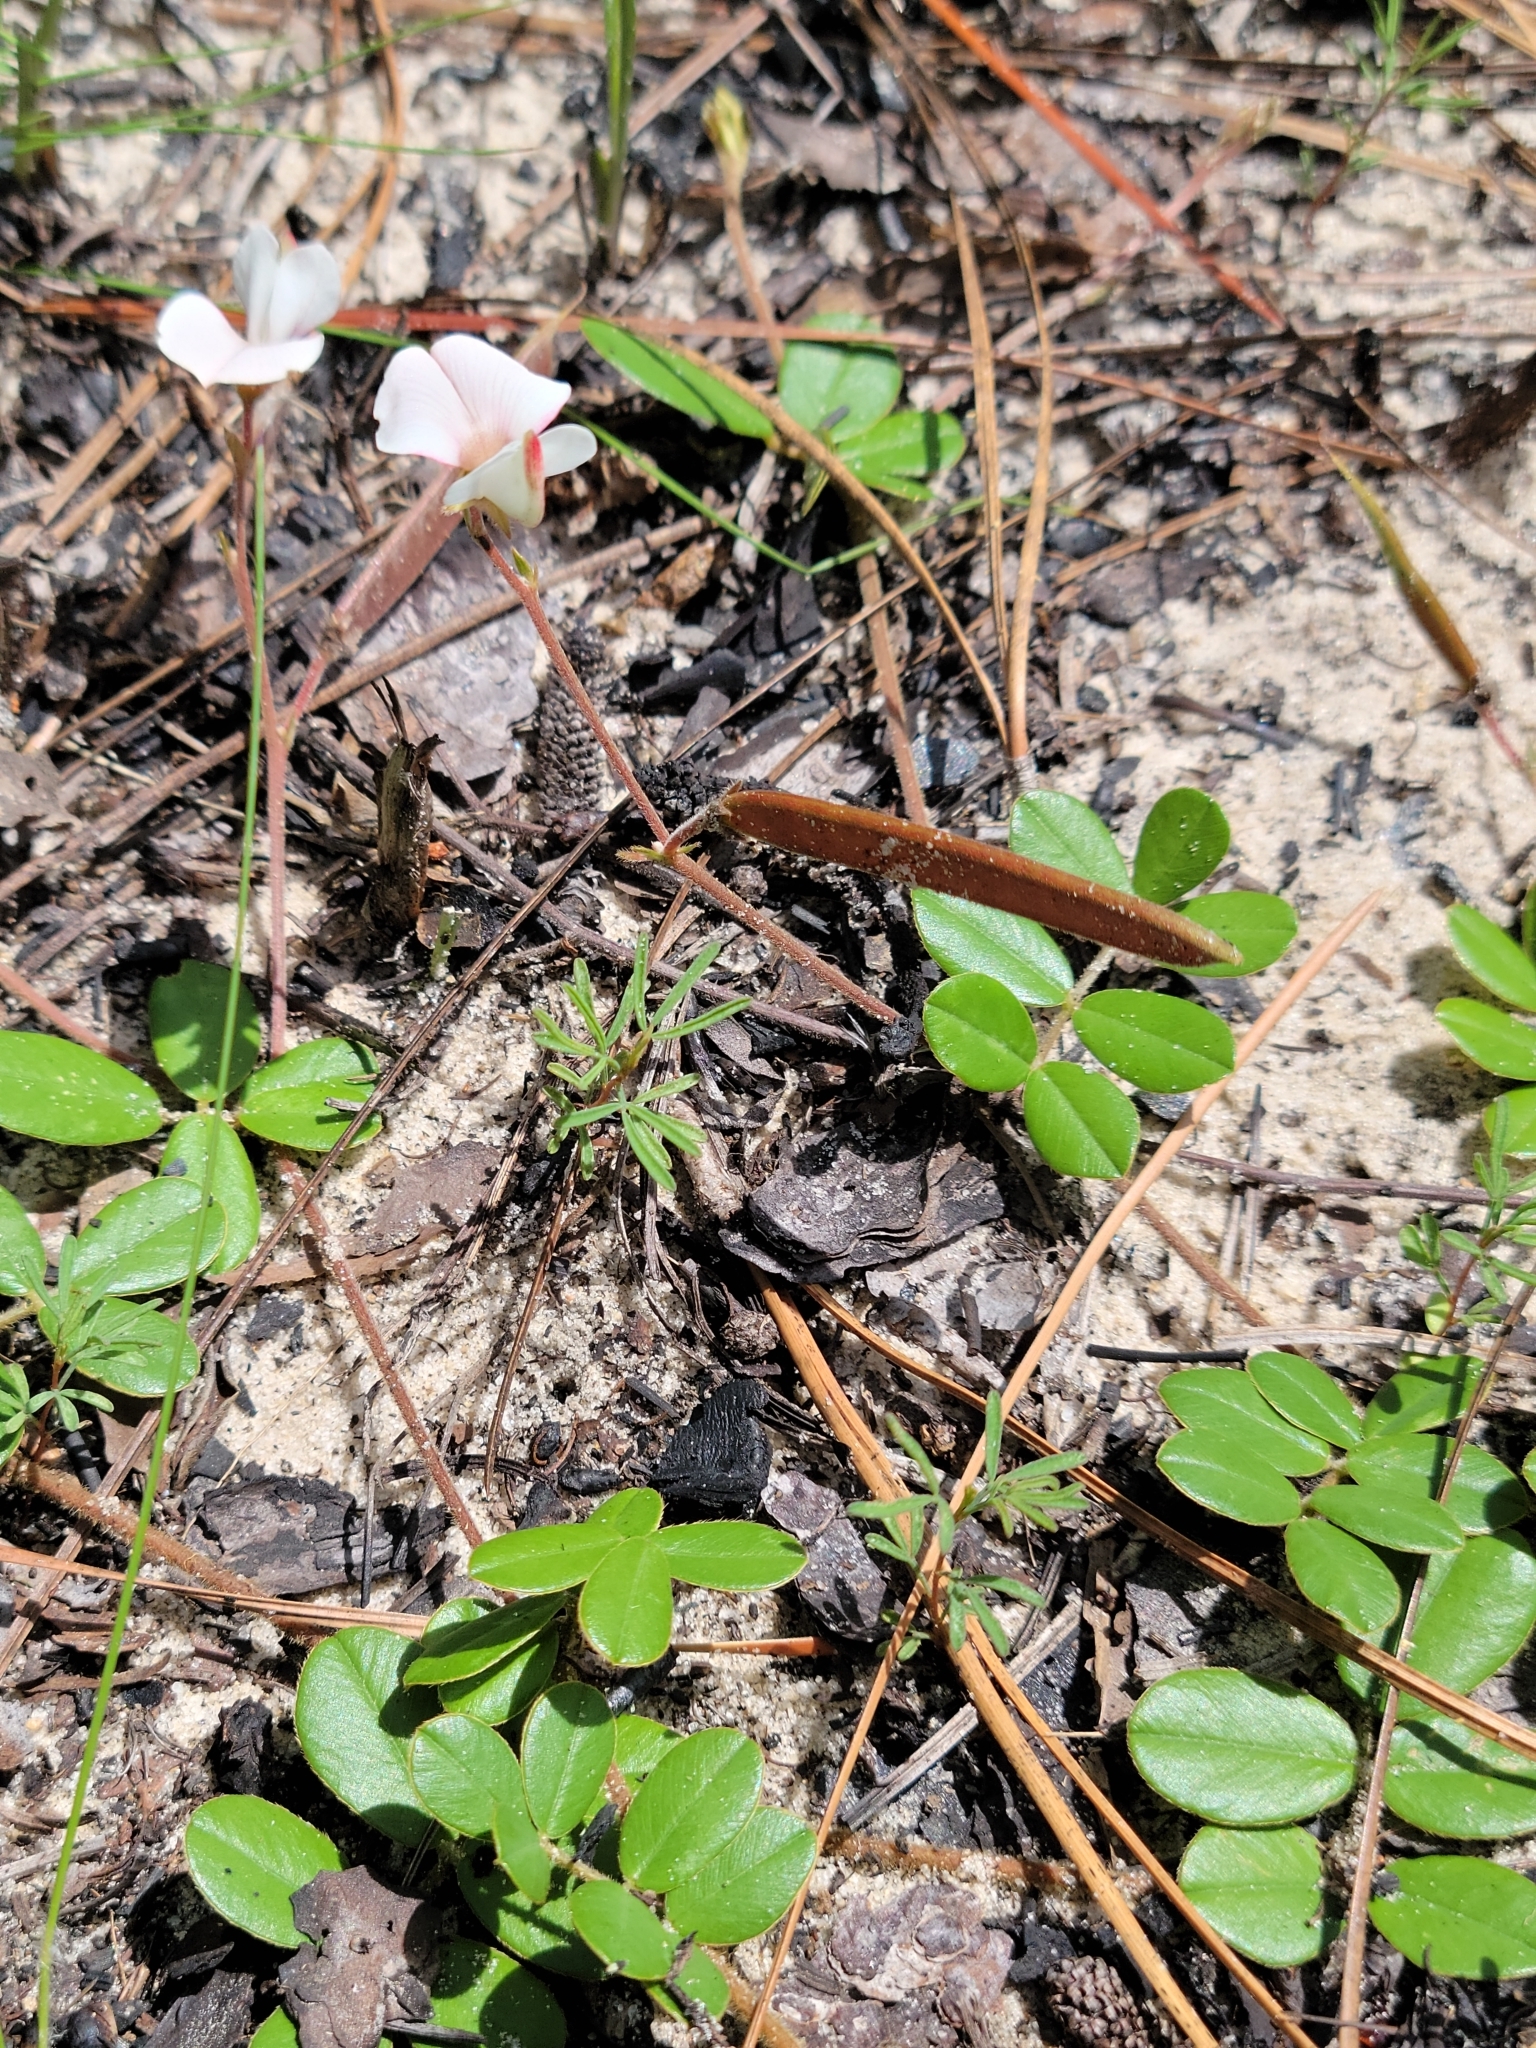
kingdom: Plantae
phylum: Tracheophyta
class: Magnoliopsida
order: Fabales
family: Fabaceae
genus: Tephrosia
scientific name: Tephrosia chrysophylla
